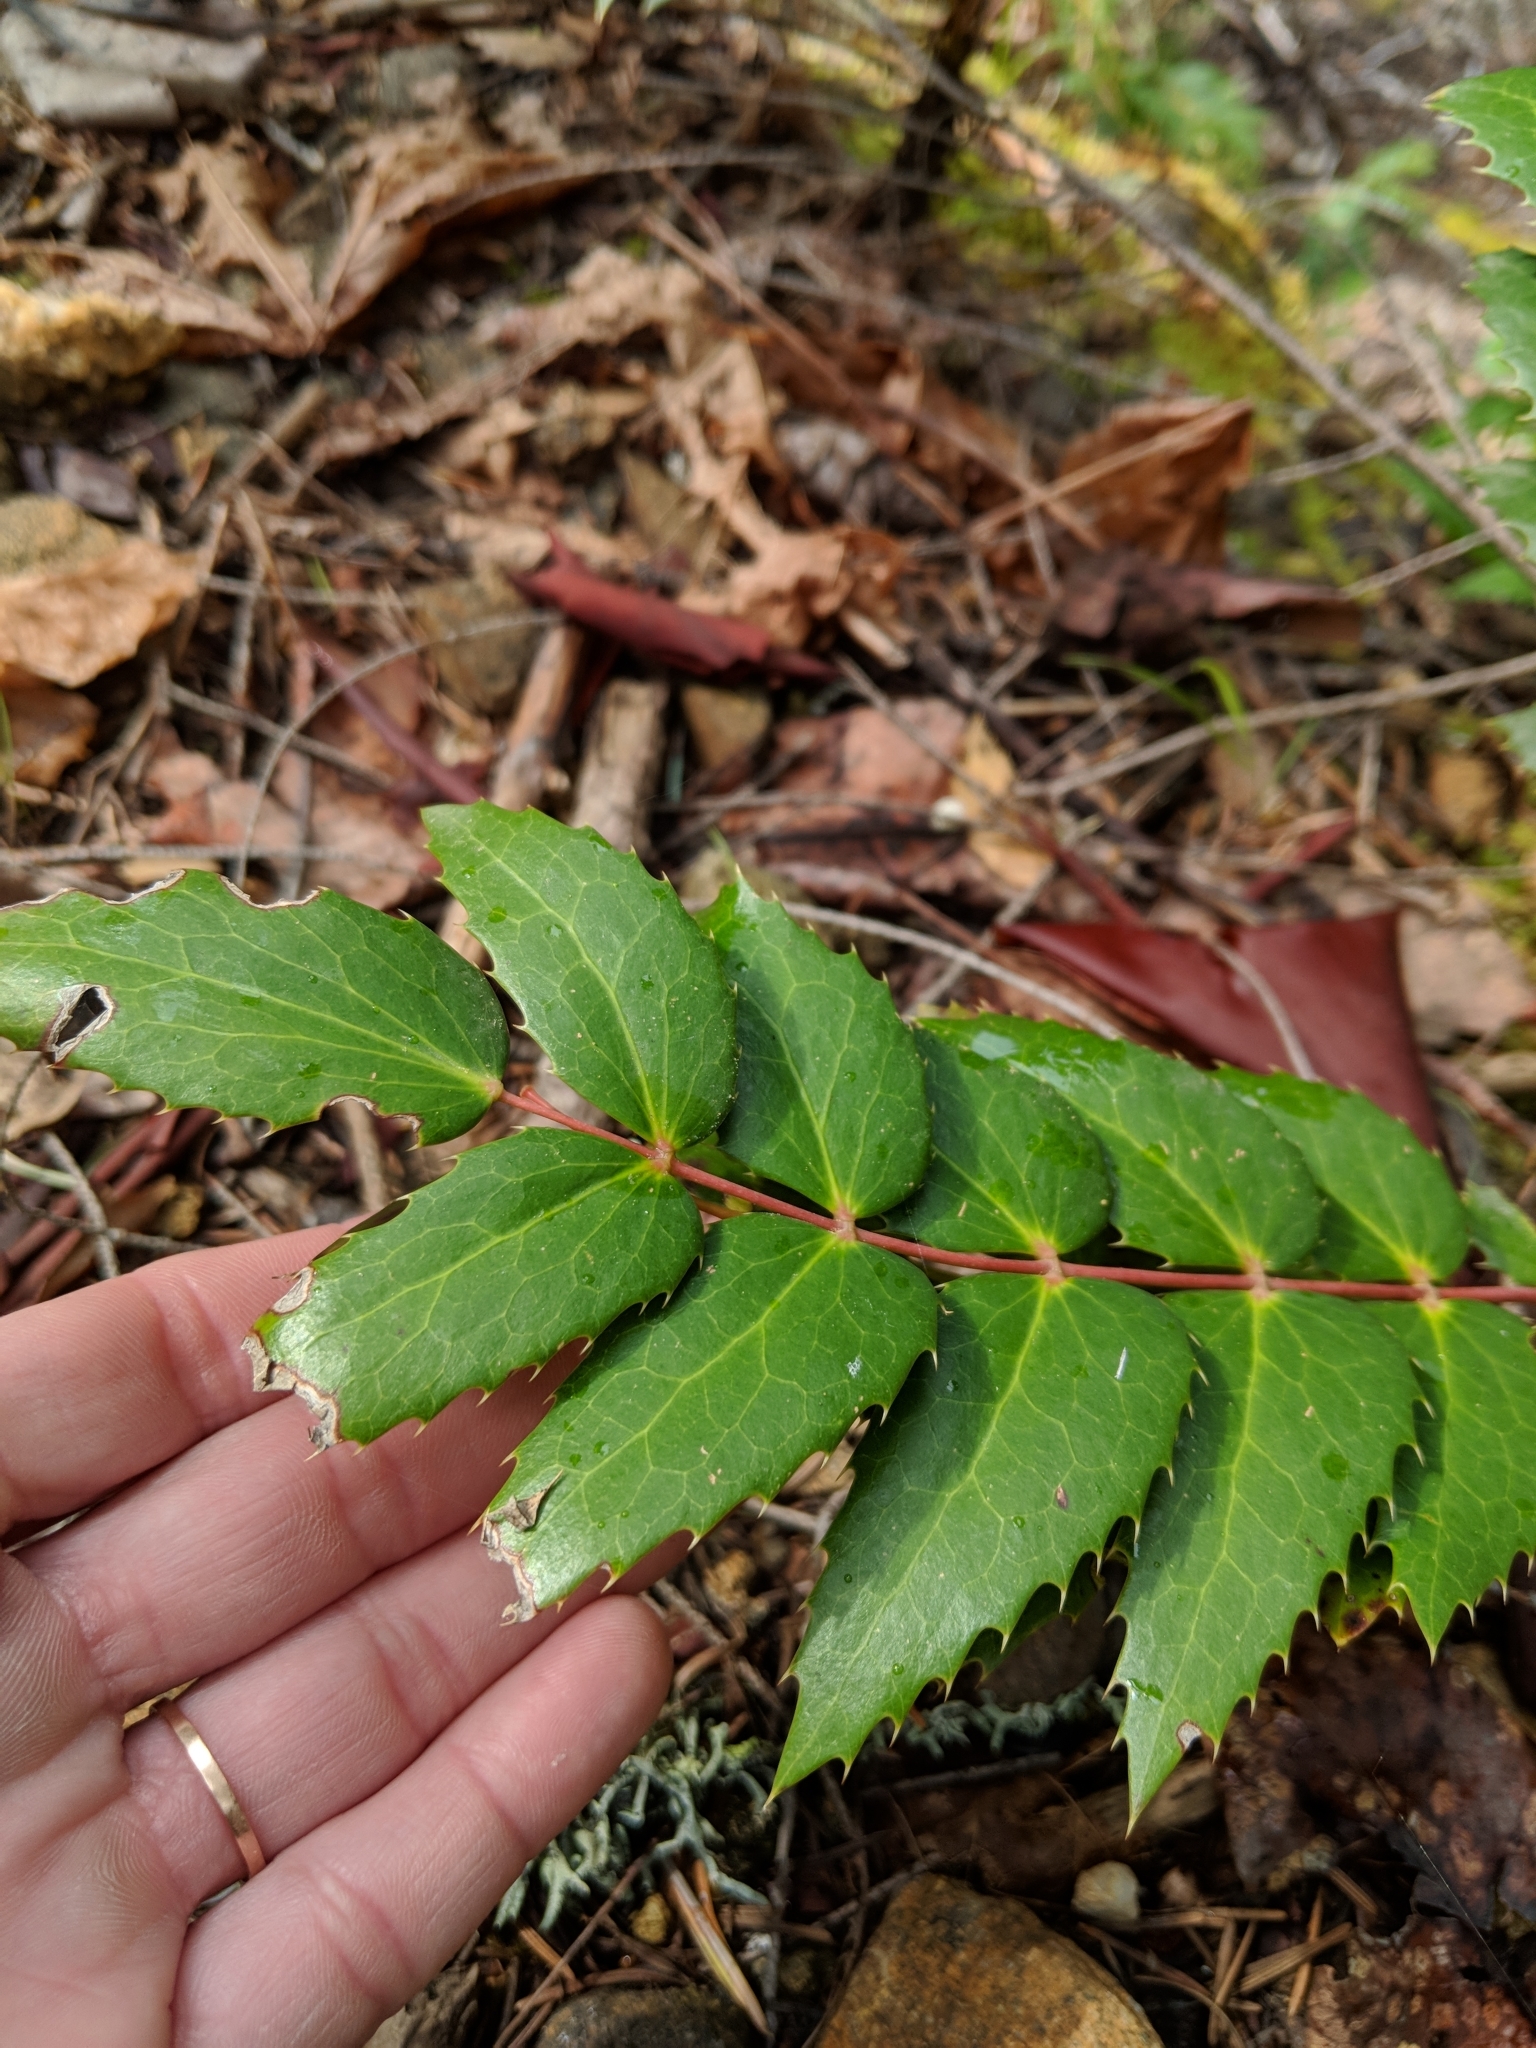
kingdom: Plantae
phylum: Tracheophyta
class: Magnoliopsida
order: Ranunculales
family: Berberidaceae
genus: Mahonia
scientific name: Mahonia nervosa
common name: Cascade oregon-grape
